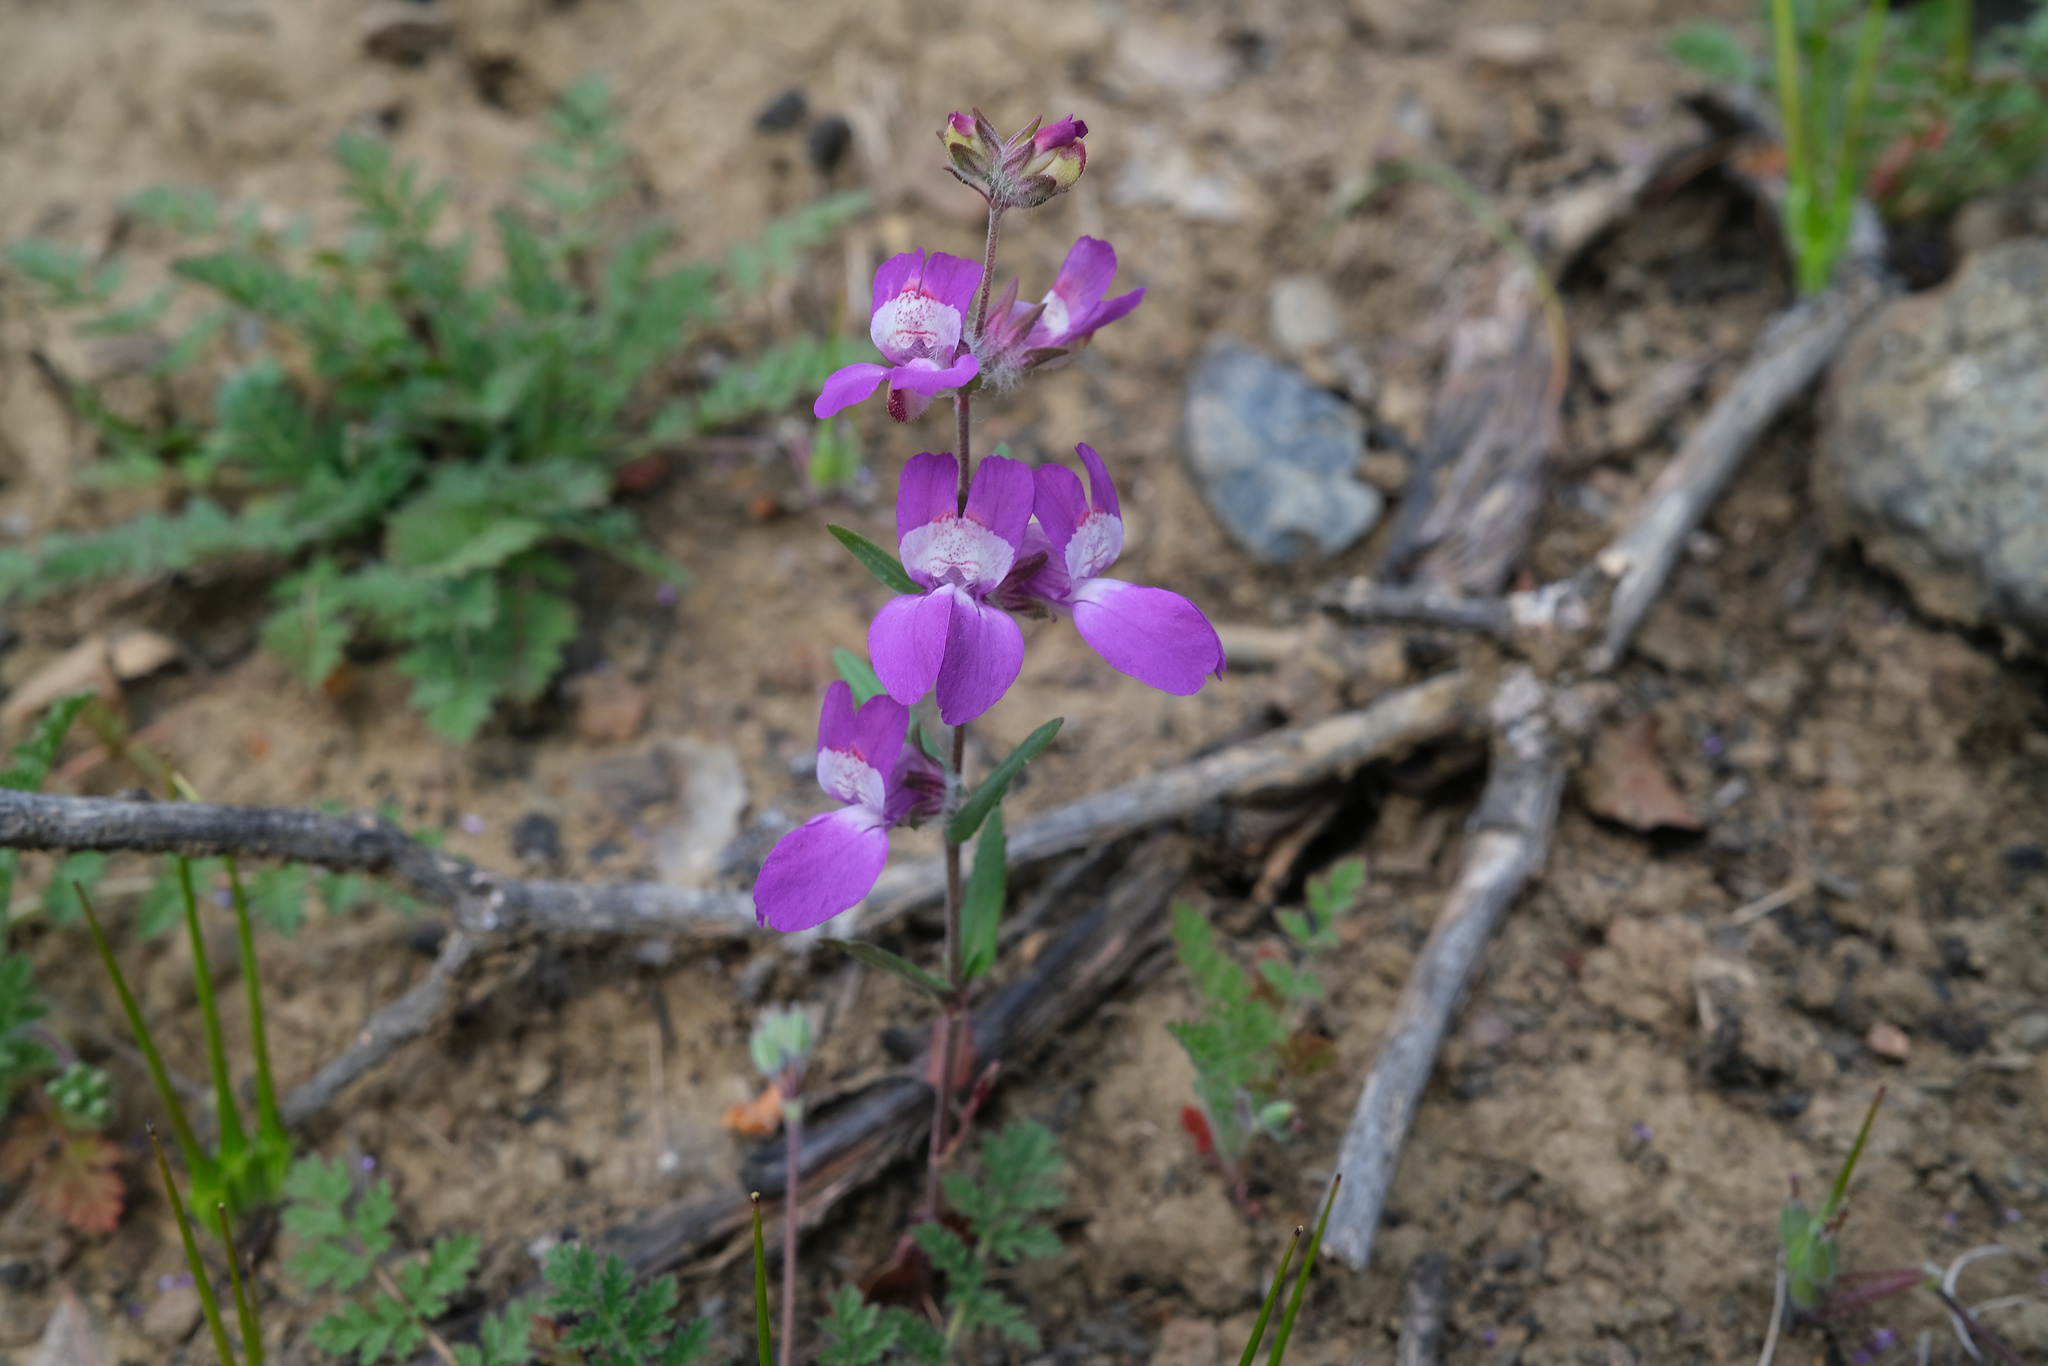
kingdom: Plantae
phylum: Tracheophyta
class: Magnoliopsida
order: Lamiales
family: Plantaginaceae
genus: Collinsia
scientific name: Collinsia heterophylla
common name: Chinese-houses
